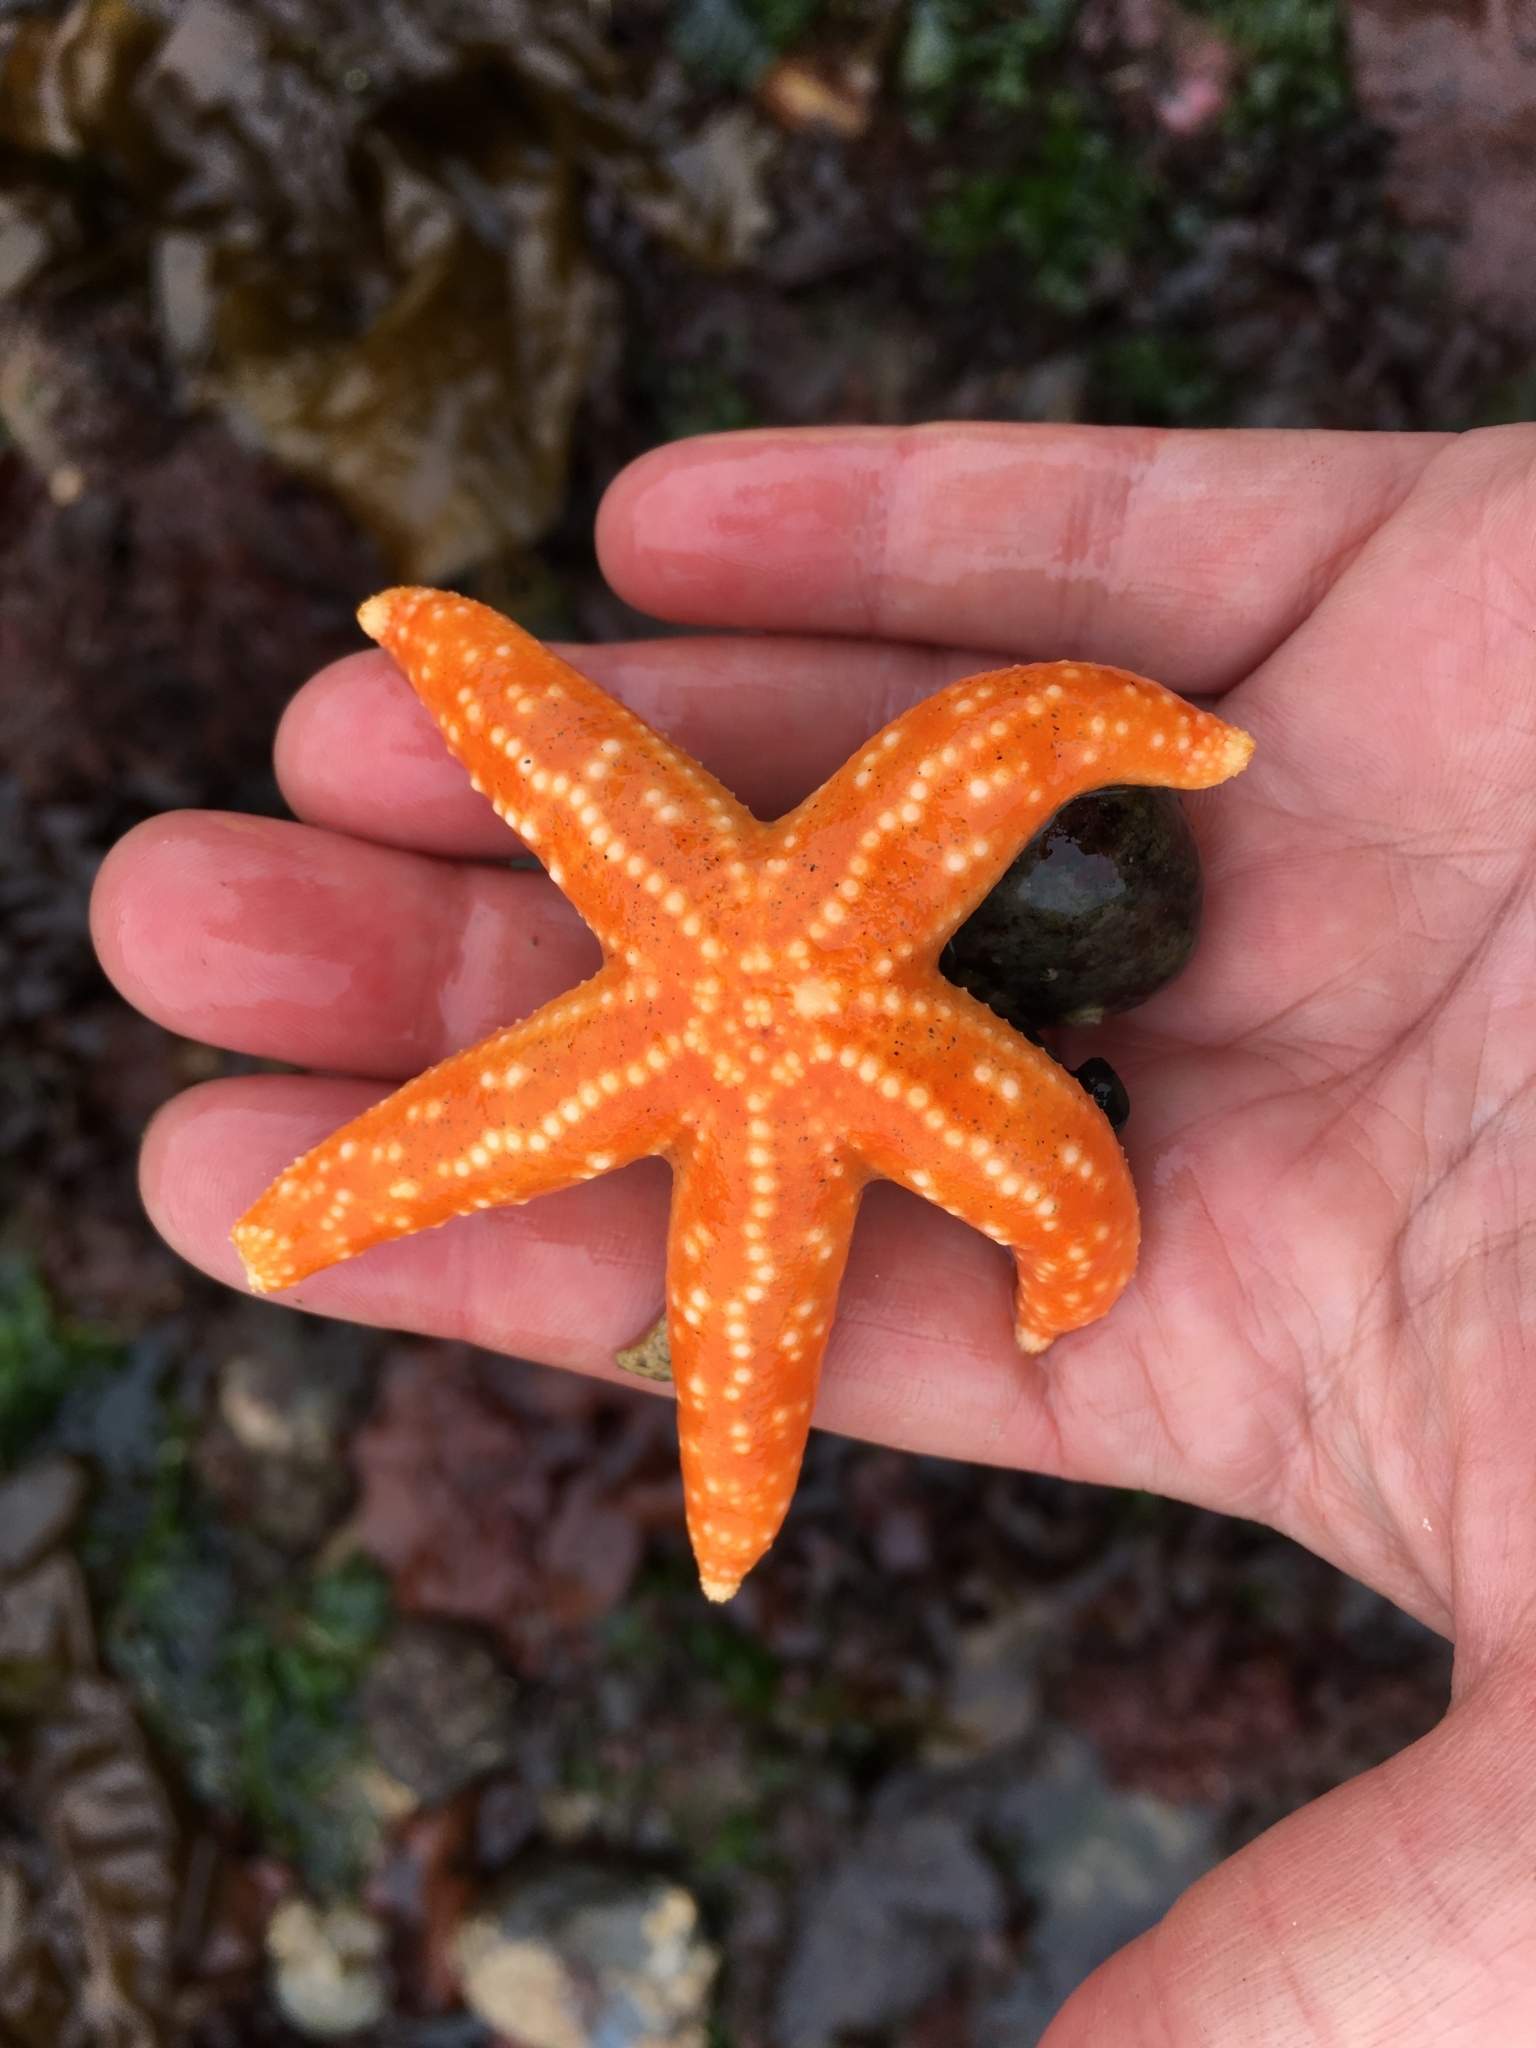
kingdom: Animalia
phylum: Echinodermata
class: Asteroidea
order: Forcipulatida
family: Asteriidae
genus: Evasterias
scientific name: Evasterias troschelii
